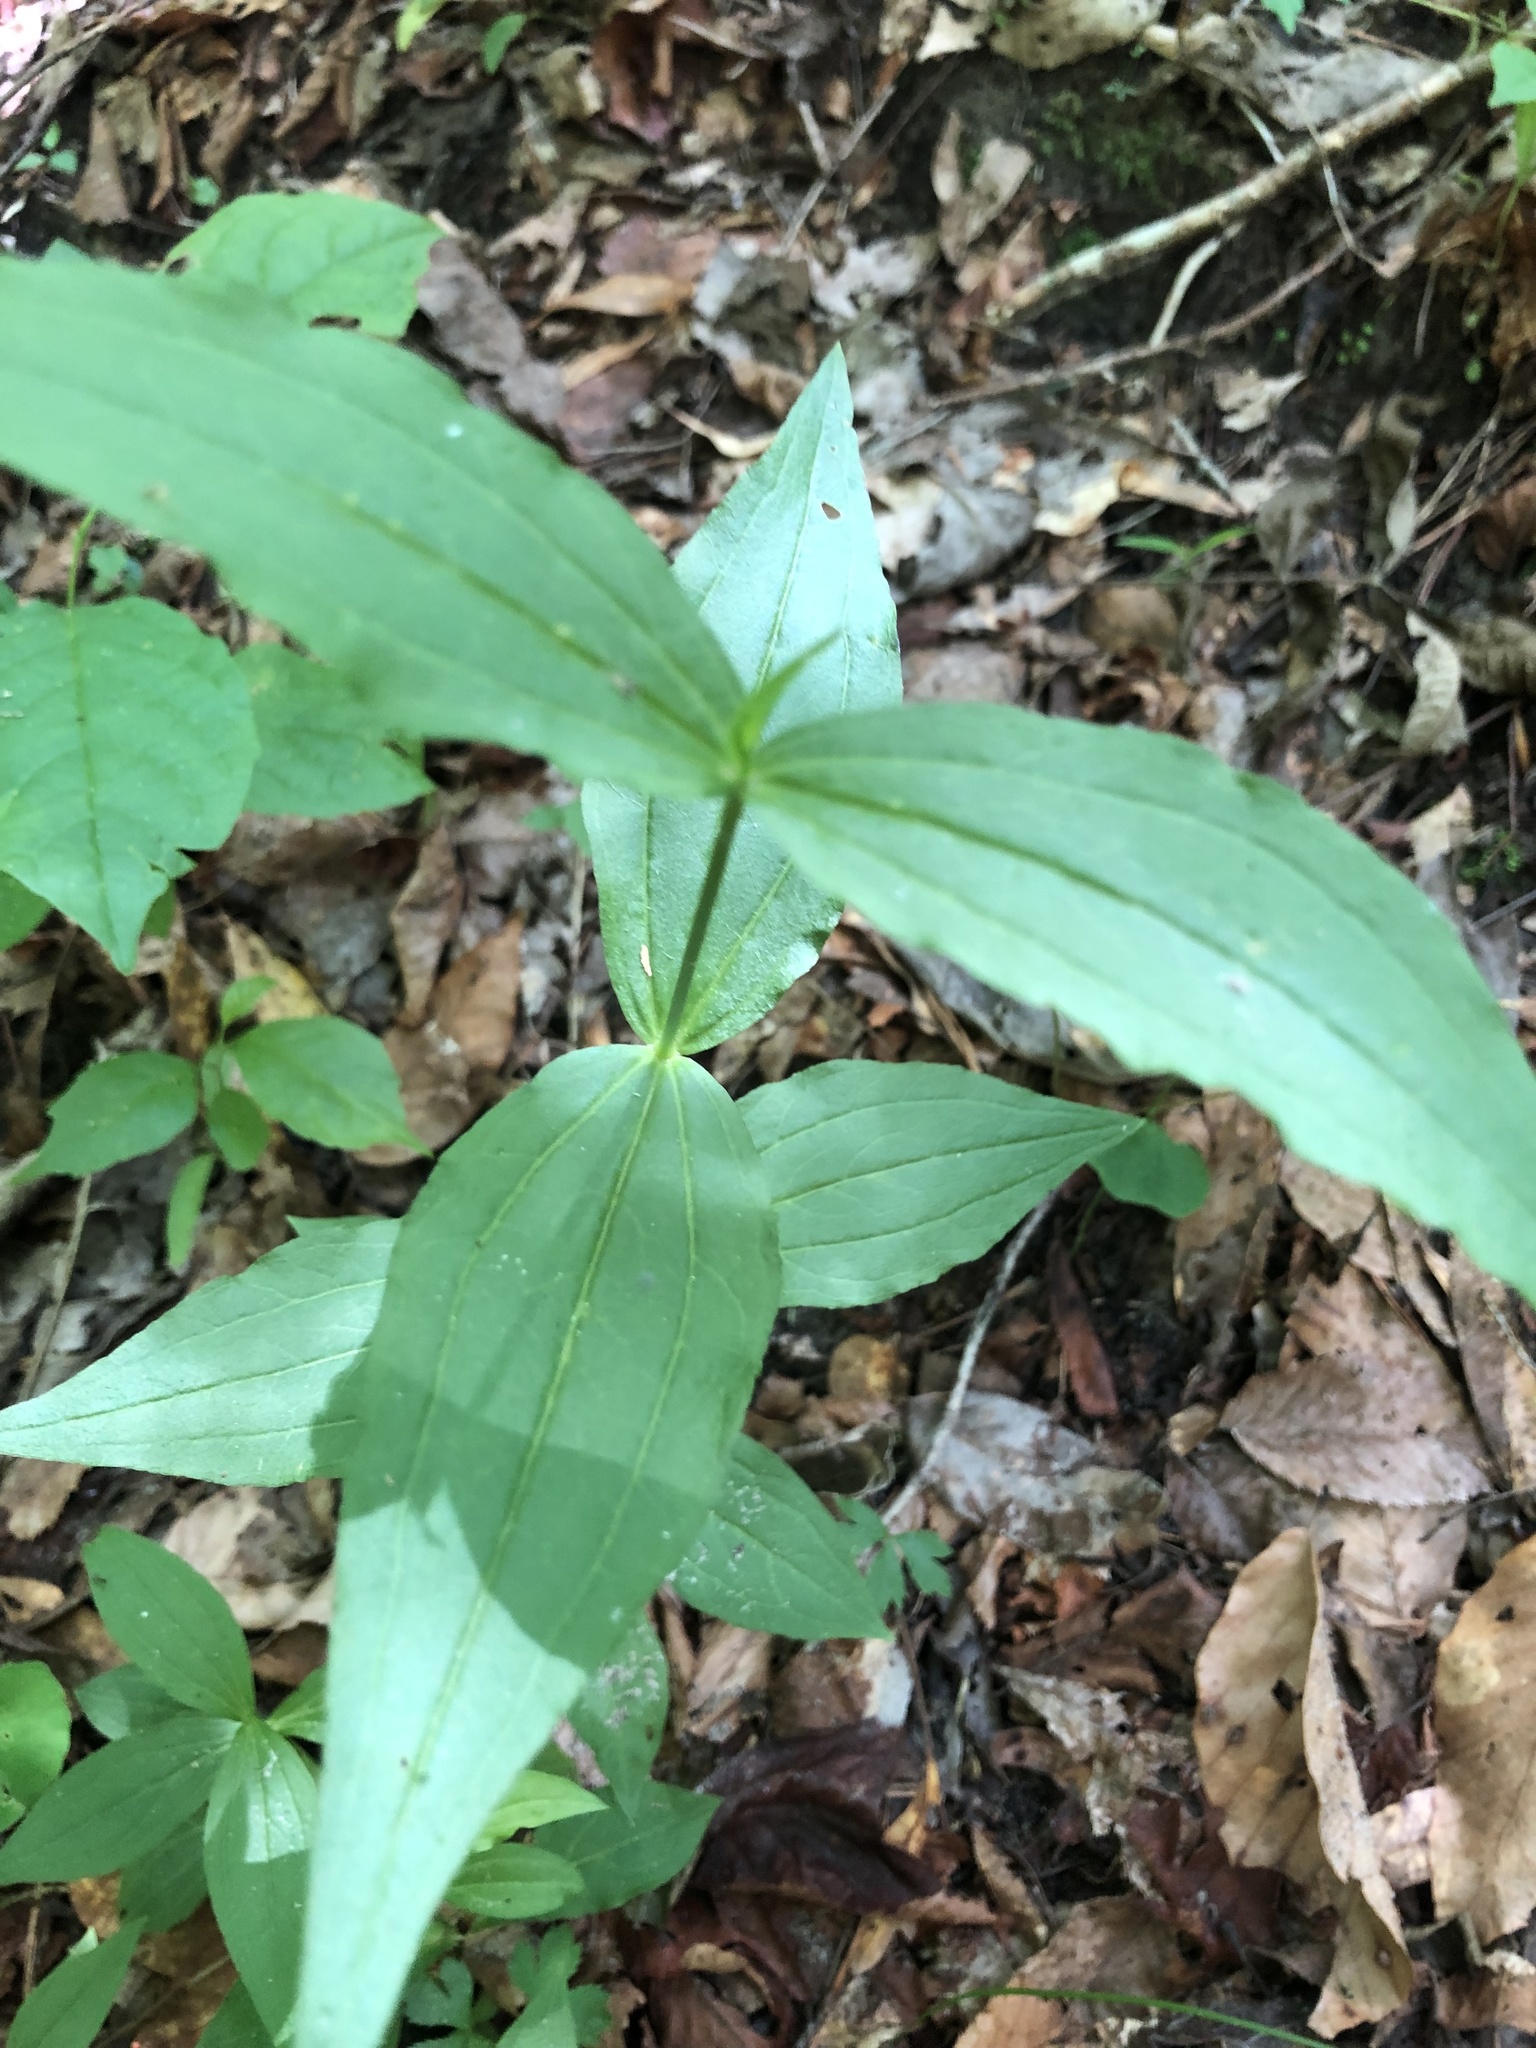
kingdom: Plantae
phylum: Tracheophyta
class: Magnoliopsida
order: Caryophyllales
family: Caryophyllaceae
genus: Silene
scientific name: Silene ovata
